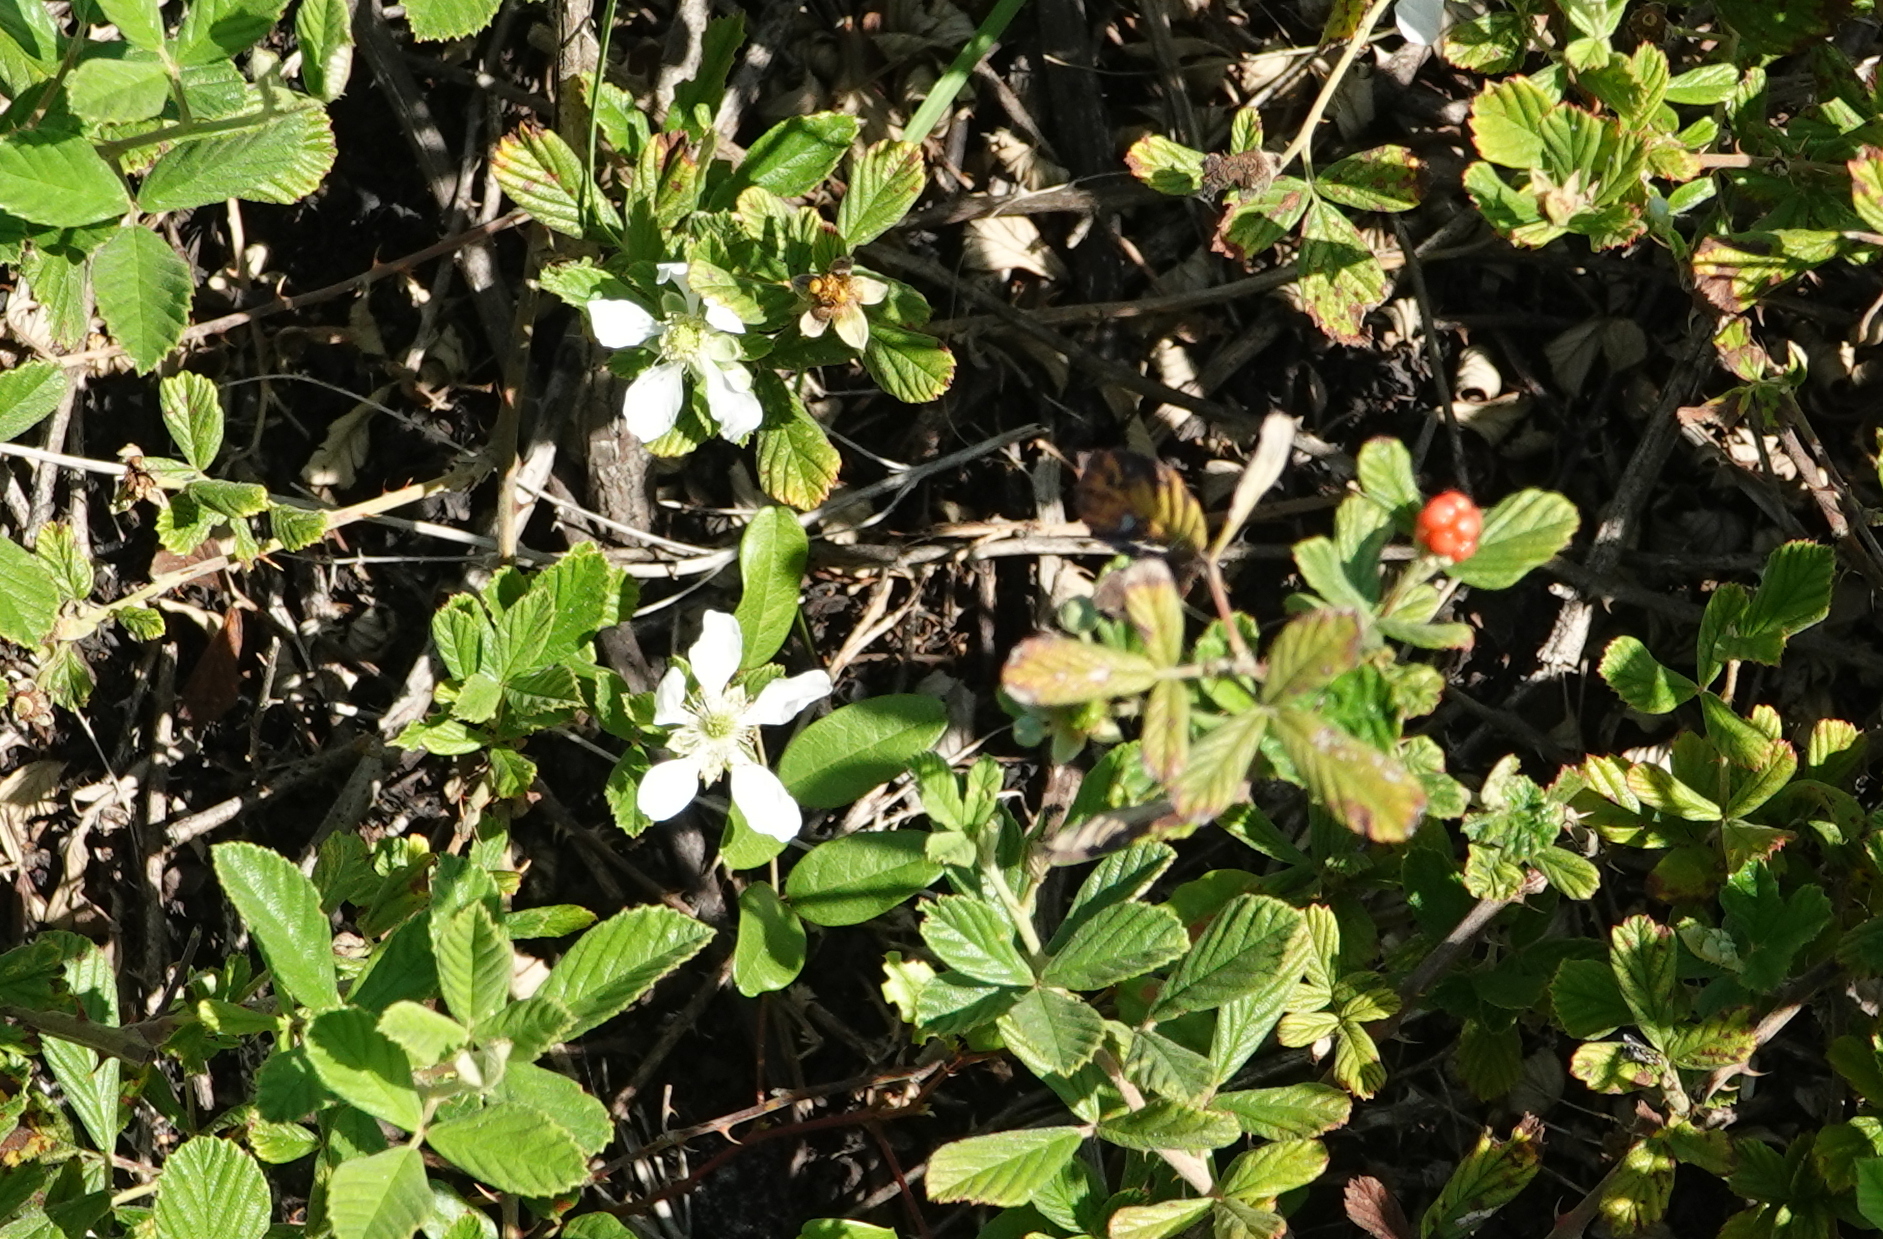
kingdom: Plantae
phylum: Tracheophyta
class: Magnoliopsida
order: Rosales
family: Rosaceae
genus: Rubus
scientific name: Rubus cuneifolius
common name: American bramble
